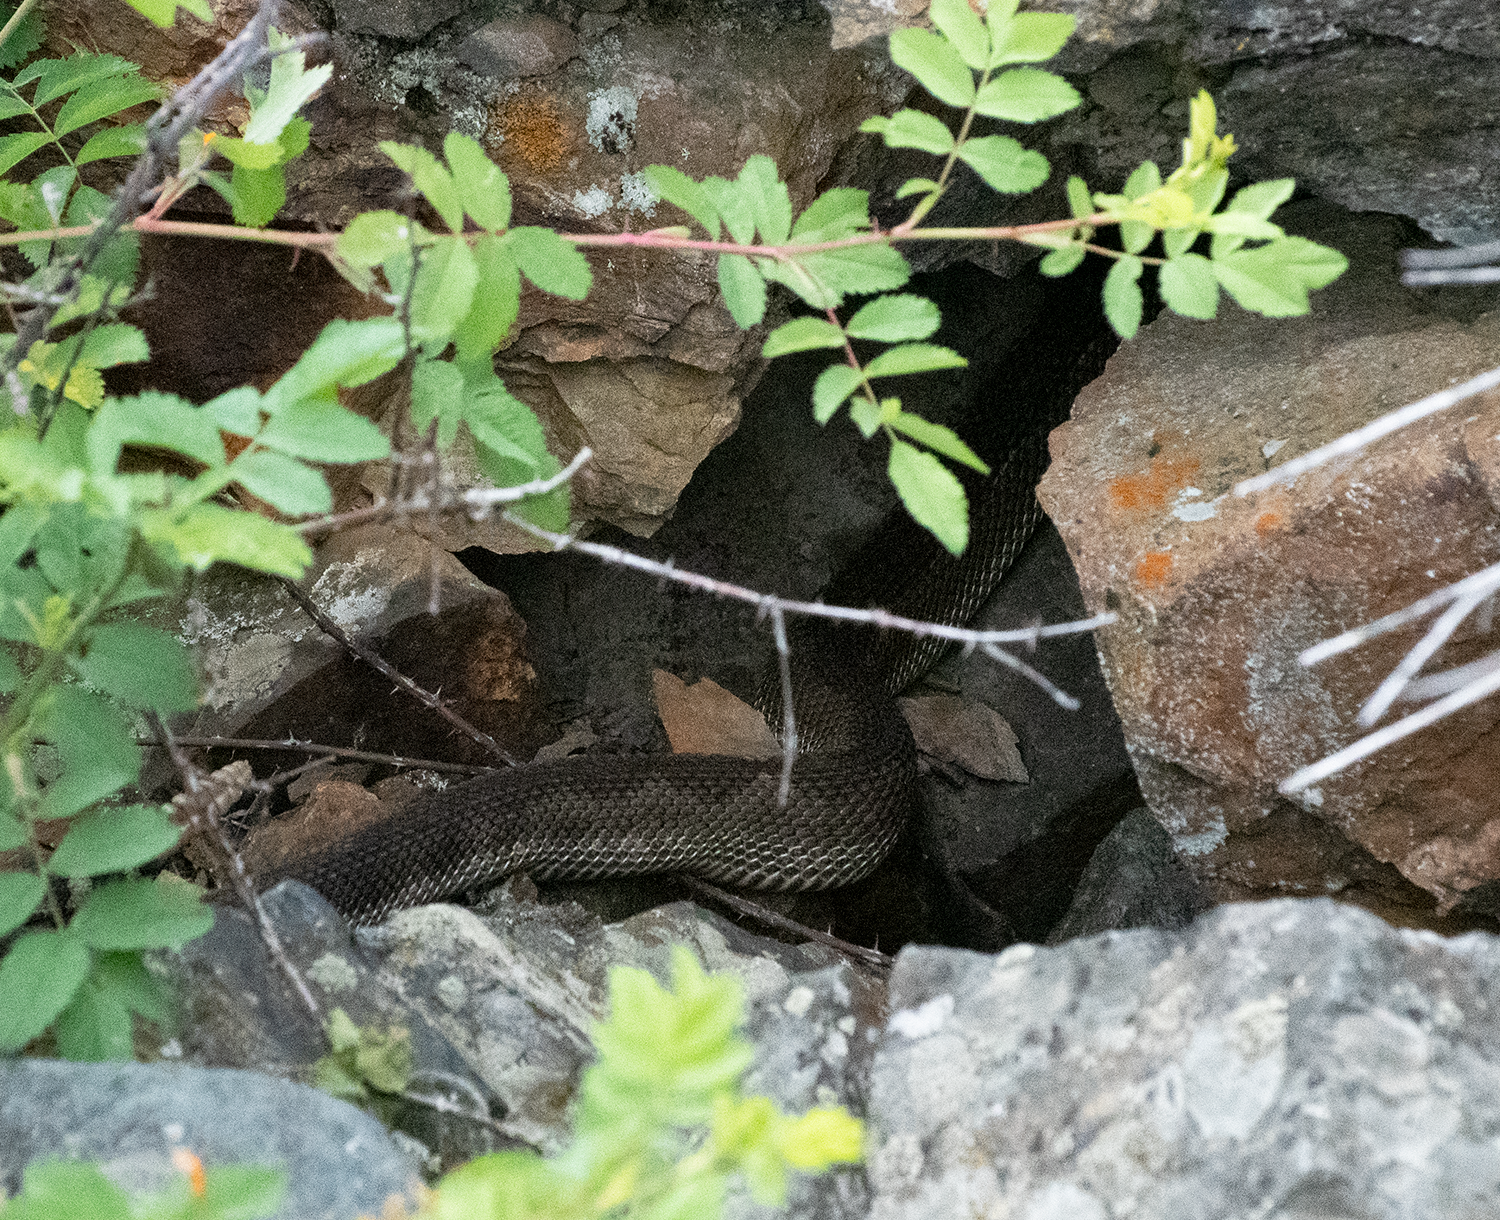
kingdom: Animalia
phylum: Chordata
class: Squamata
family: Viperidae
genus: Crotalus
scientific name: Crotalus oreganus
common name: Abyssus
